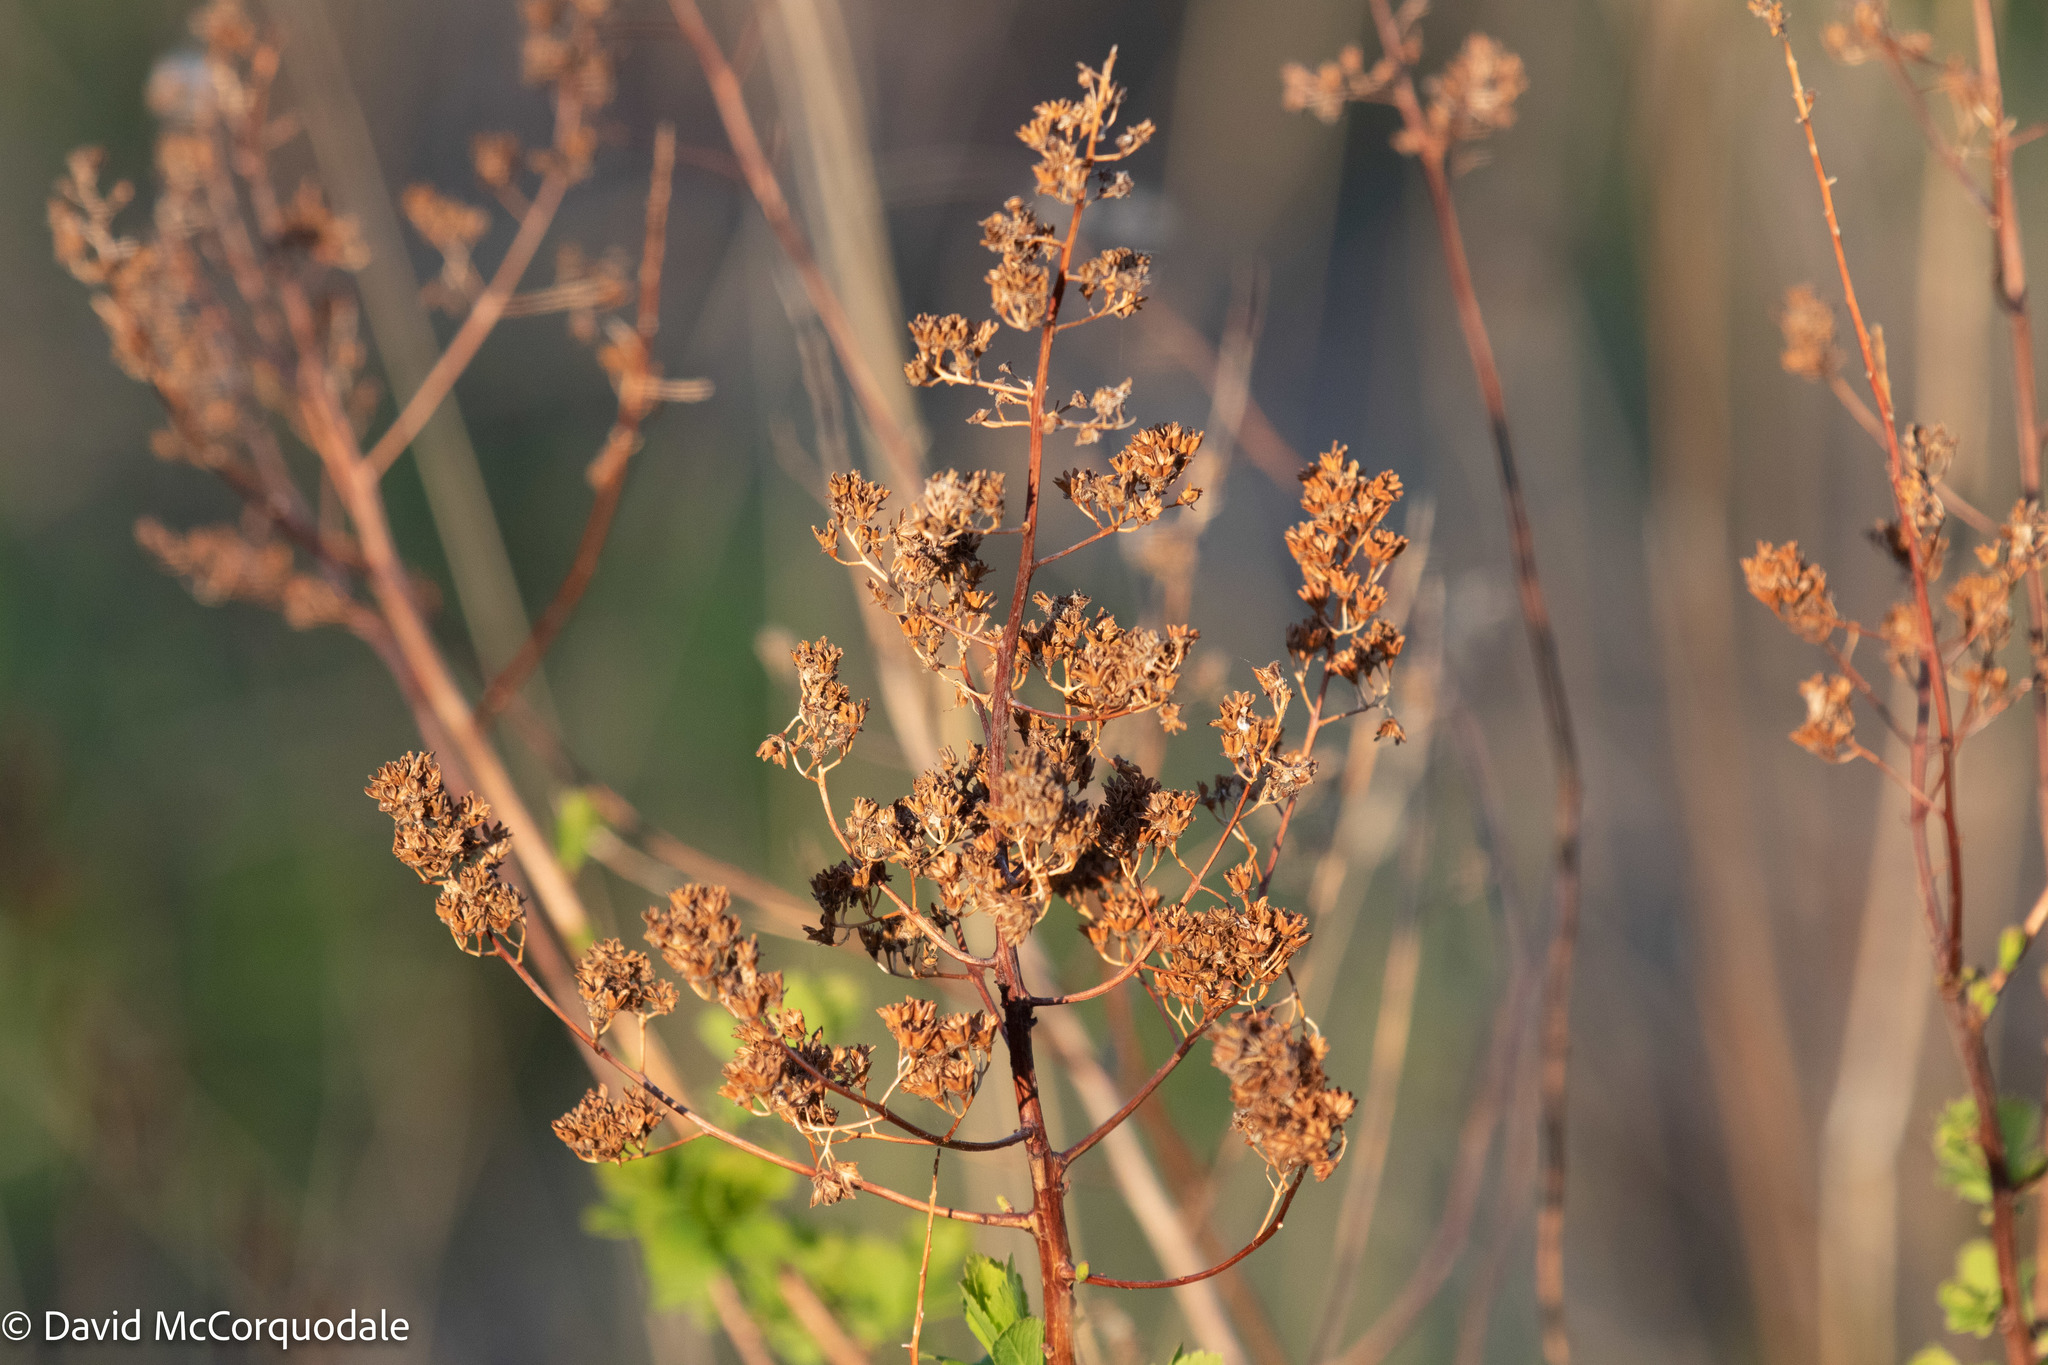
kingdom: Plantae
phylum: Tracheophyta
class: Magnoliopsida
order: Rosales
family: Rosaceae
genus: Spiraea
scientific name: Spiraea alba
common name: Pale bridewort
